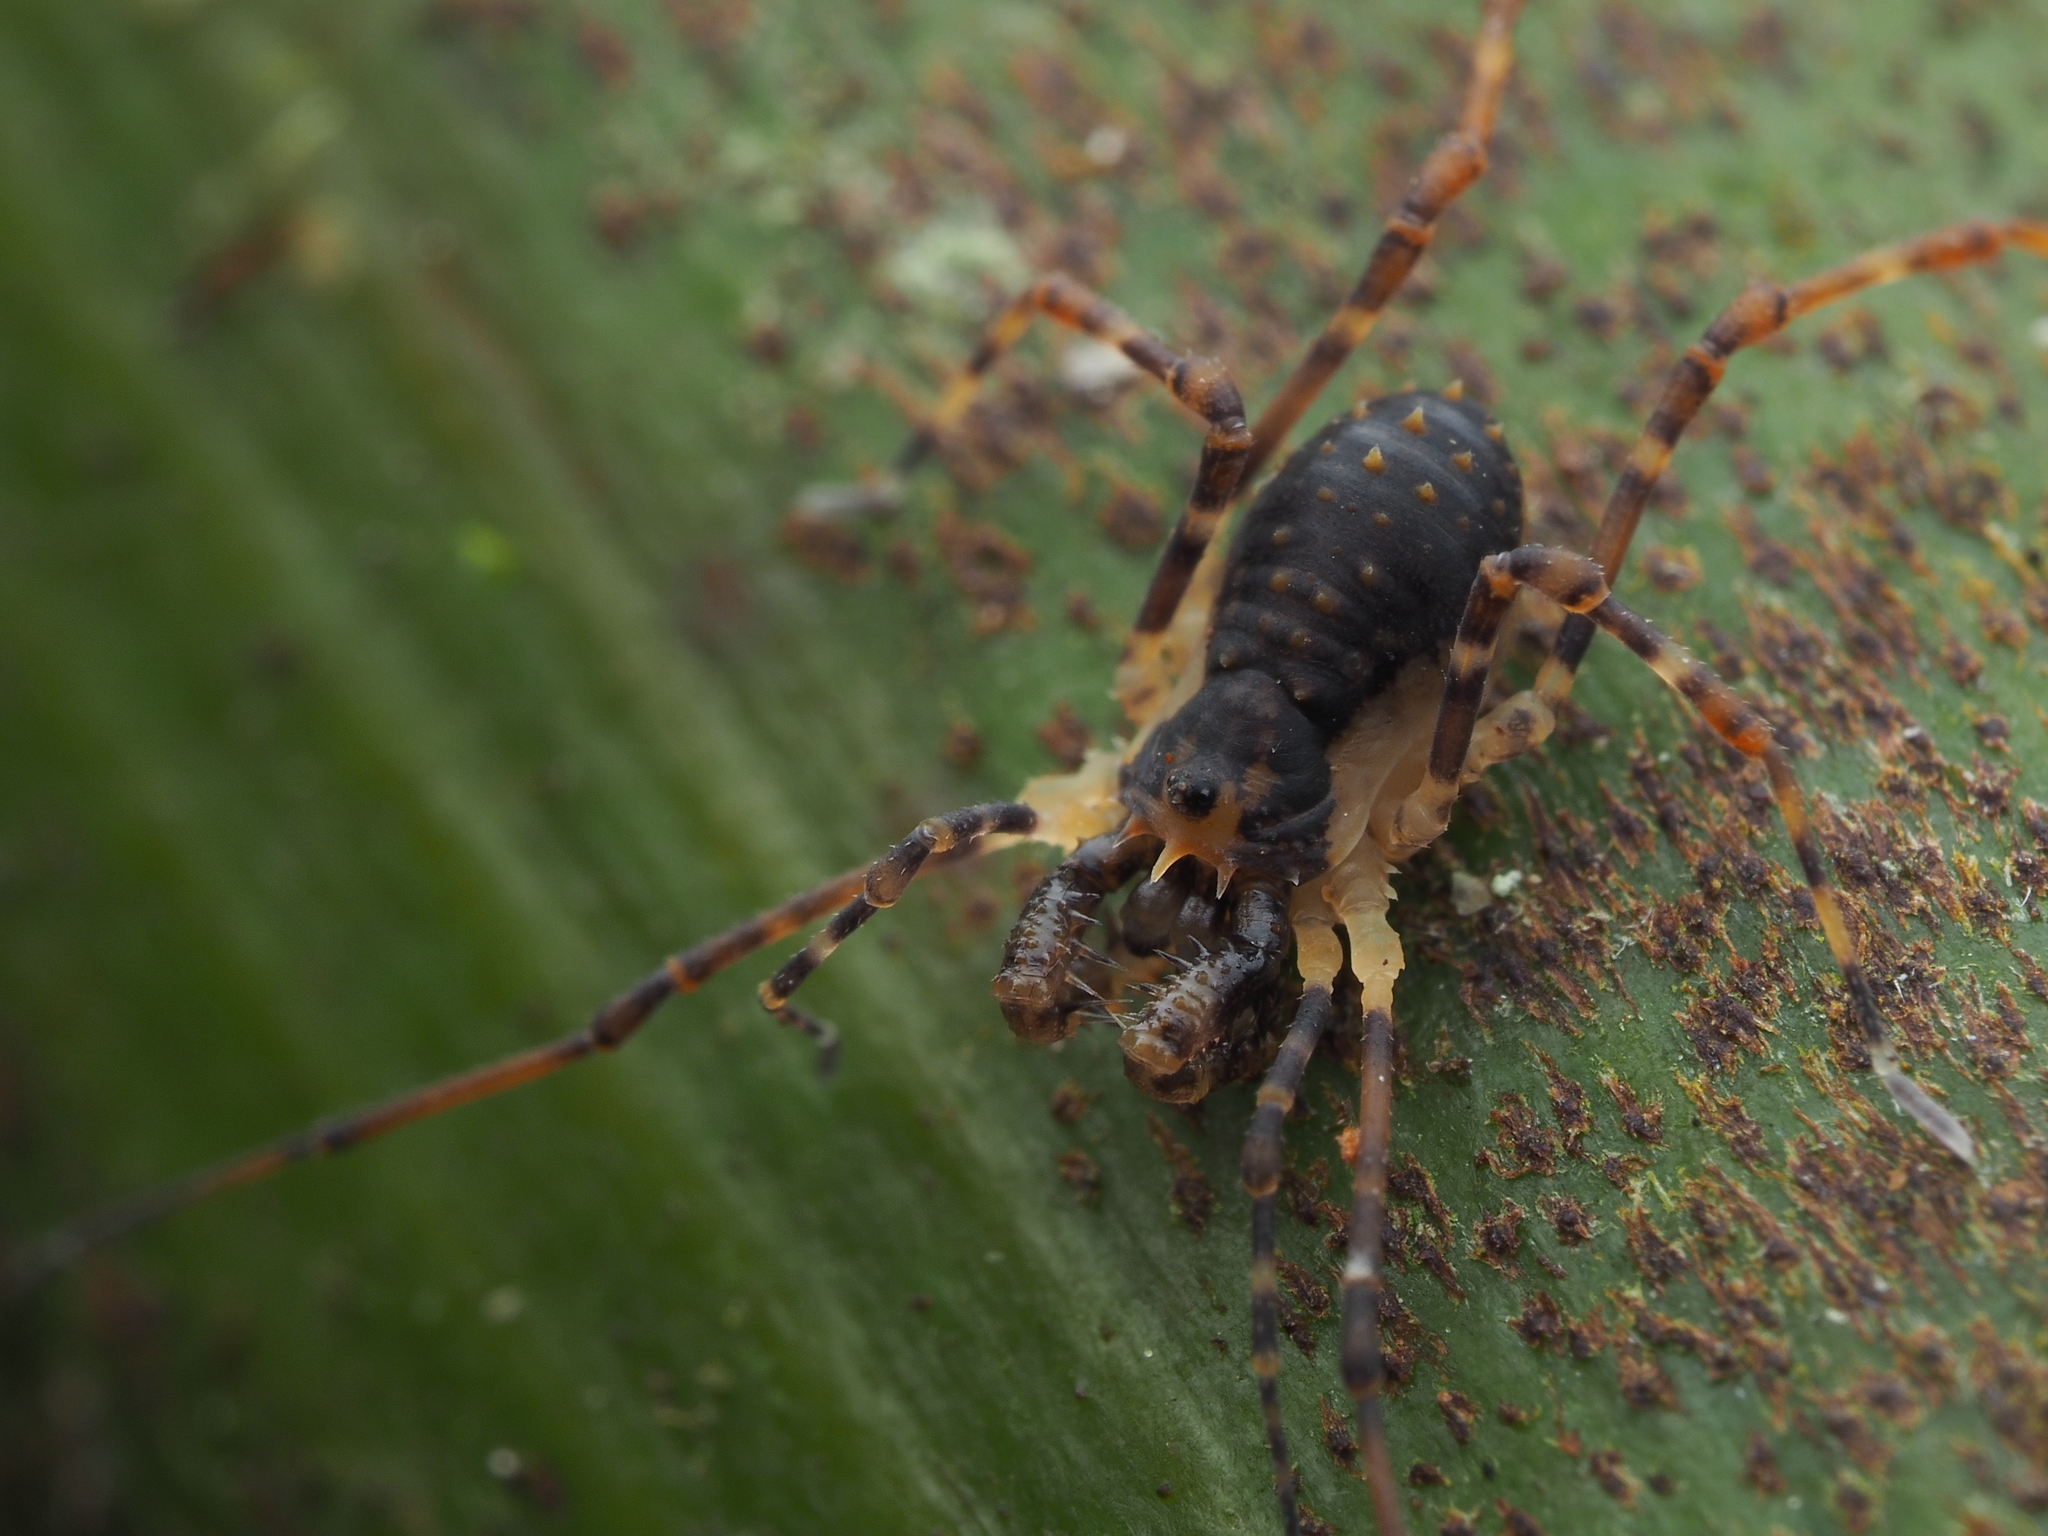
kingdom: Animalia
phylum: Arthropoda
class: Arachnida
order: Opiliones
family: Triaenonychidae
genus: Algidia
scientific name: Algidia chiltoni
